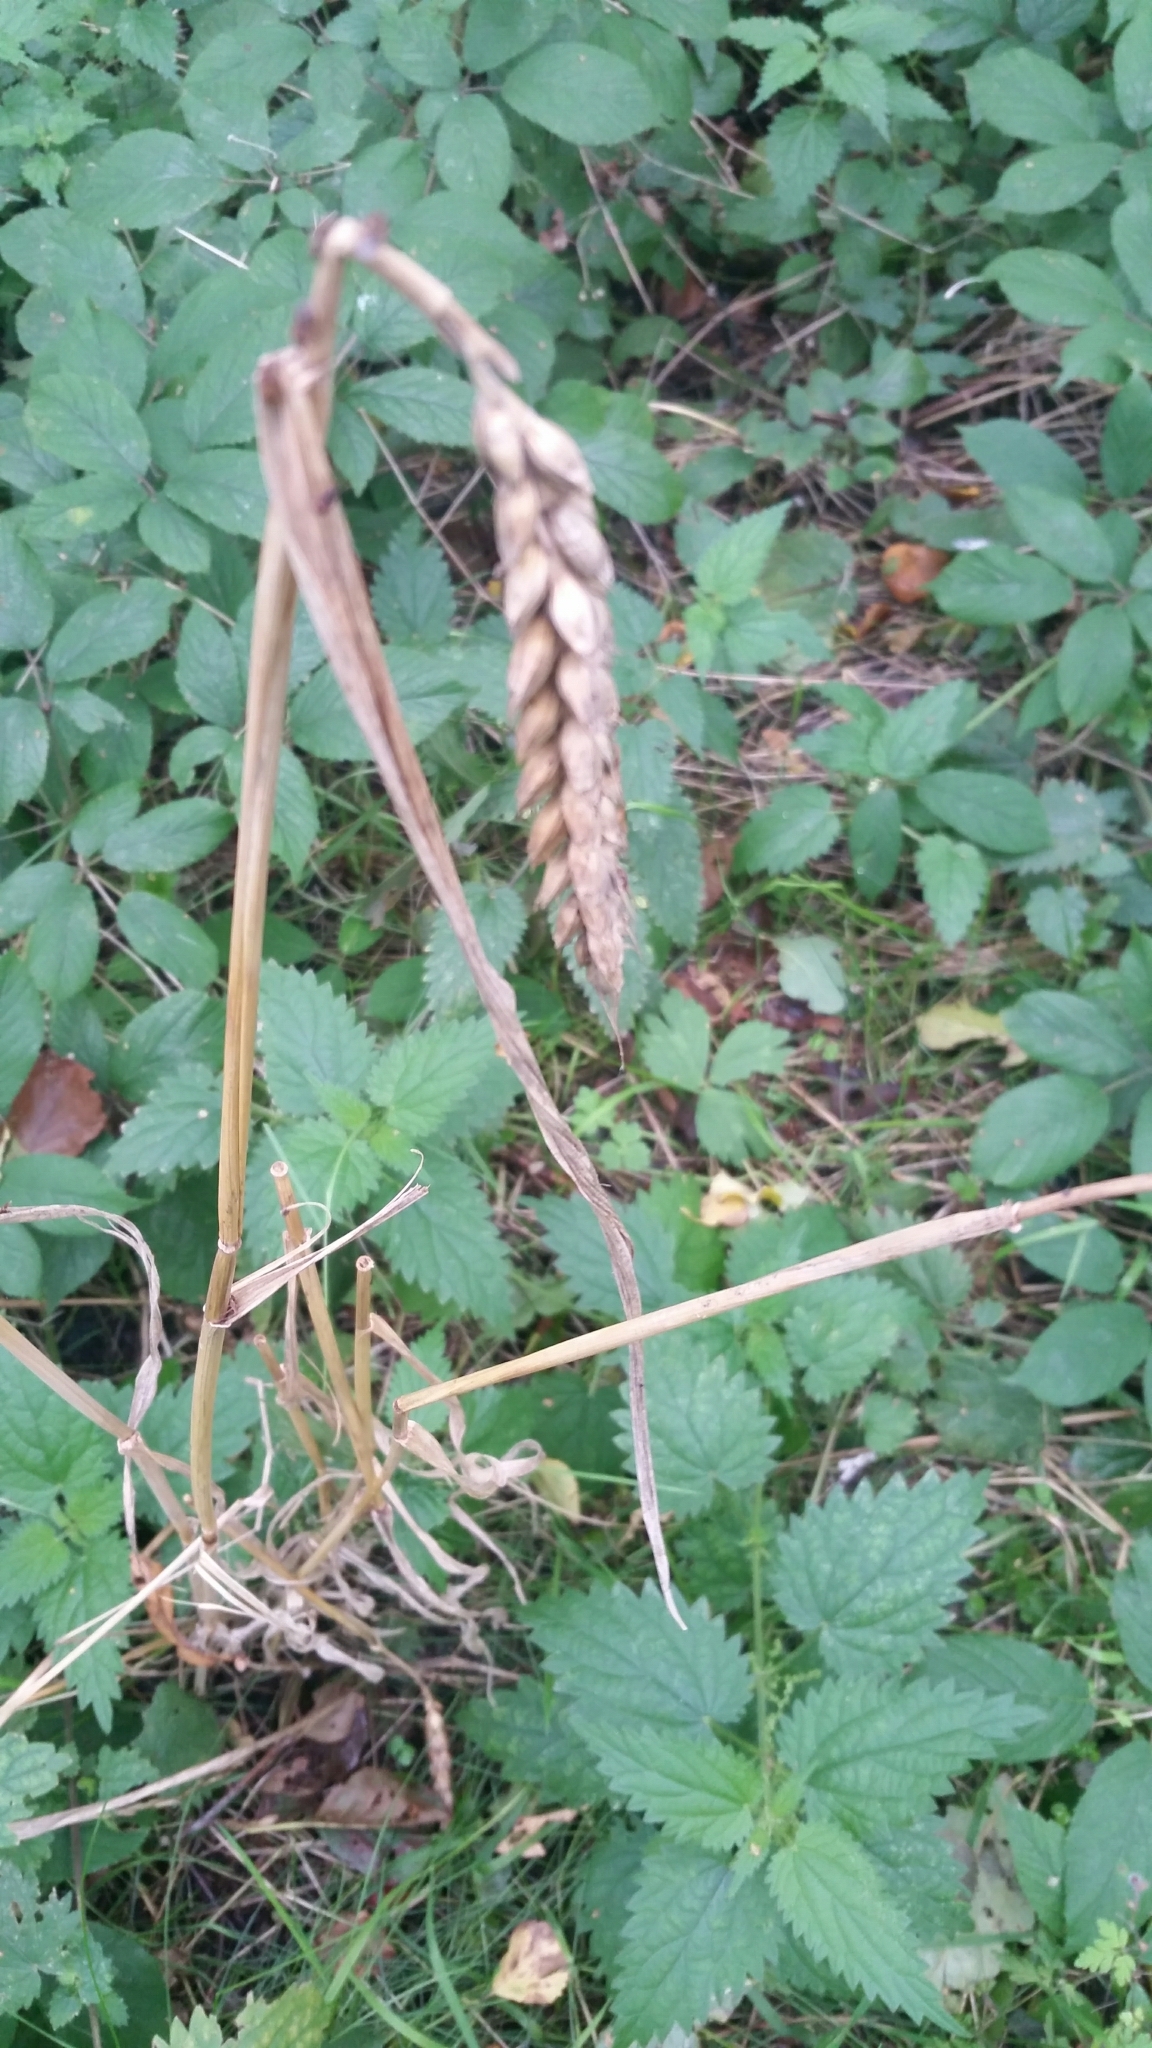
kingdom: Plantae
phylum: Tracheophyta
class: Liliopsida
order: Poales
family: Poaceae
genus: Triticum
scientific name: Triticum aestivum
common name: Common wheat
